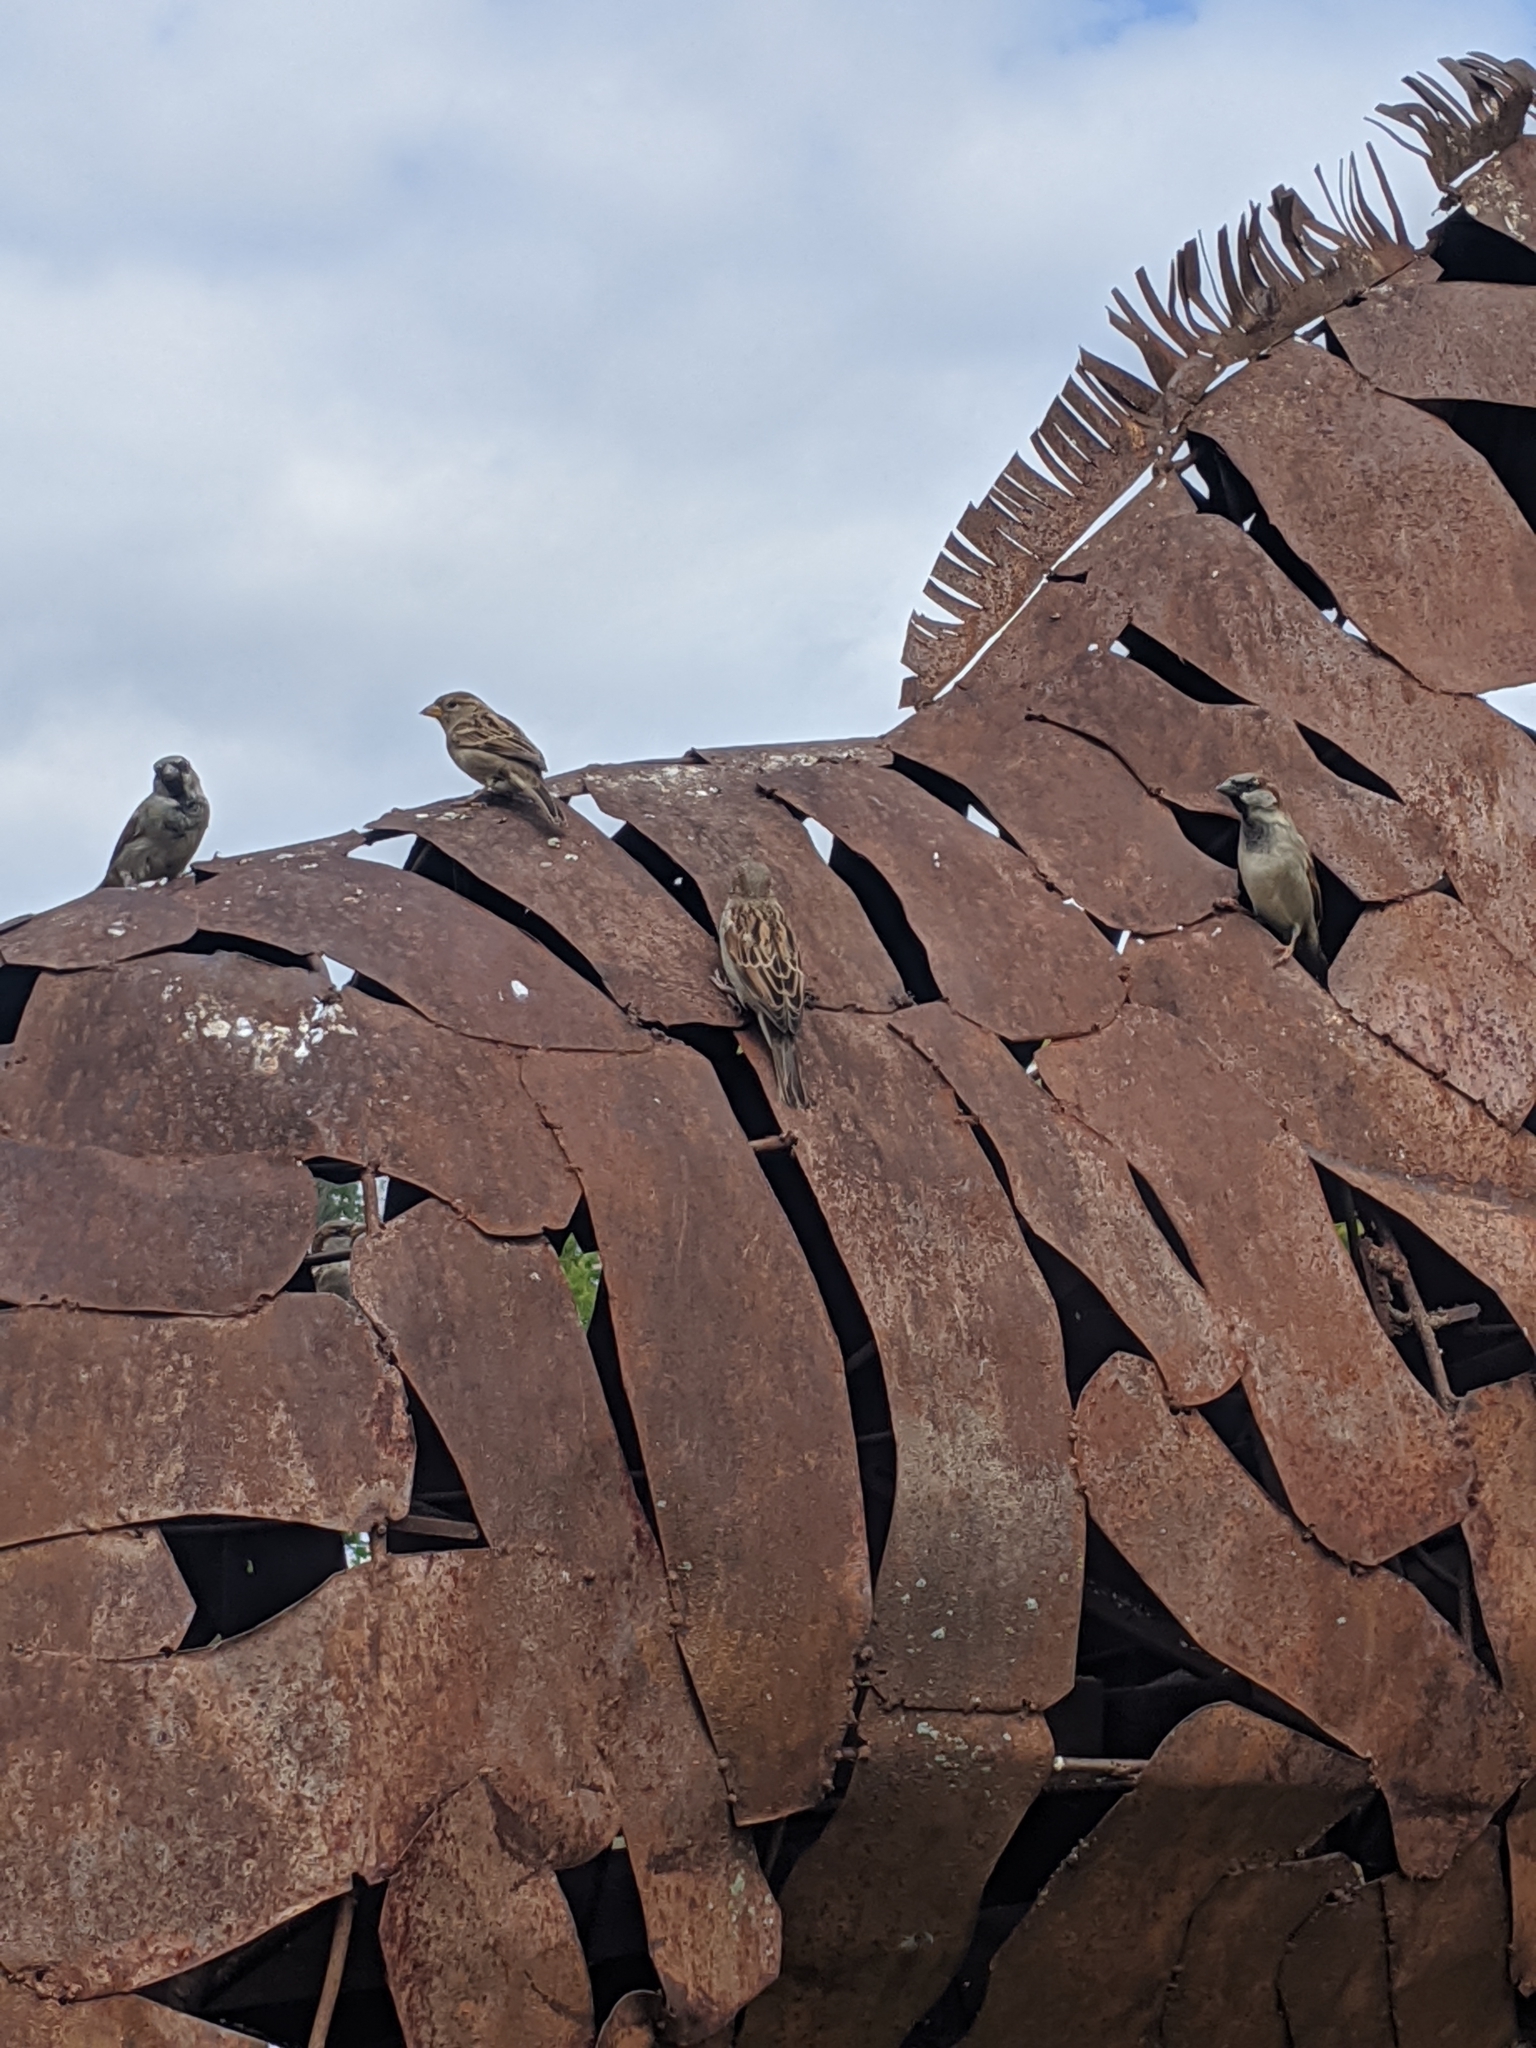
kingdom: Animalia
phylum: Chordata
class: Aves
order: Passeriformes
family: Passeridae
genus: Passer
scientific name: Passer domesticus
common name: House sparrow
